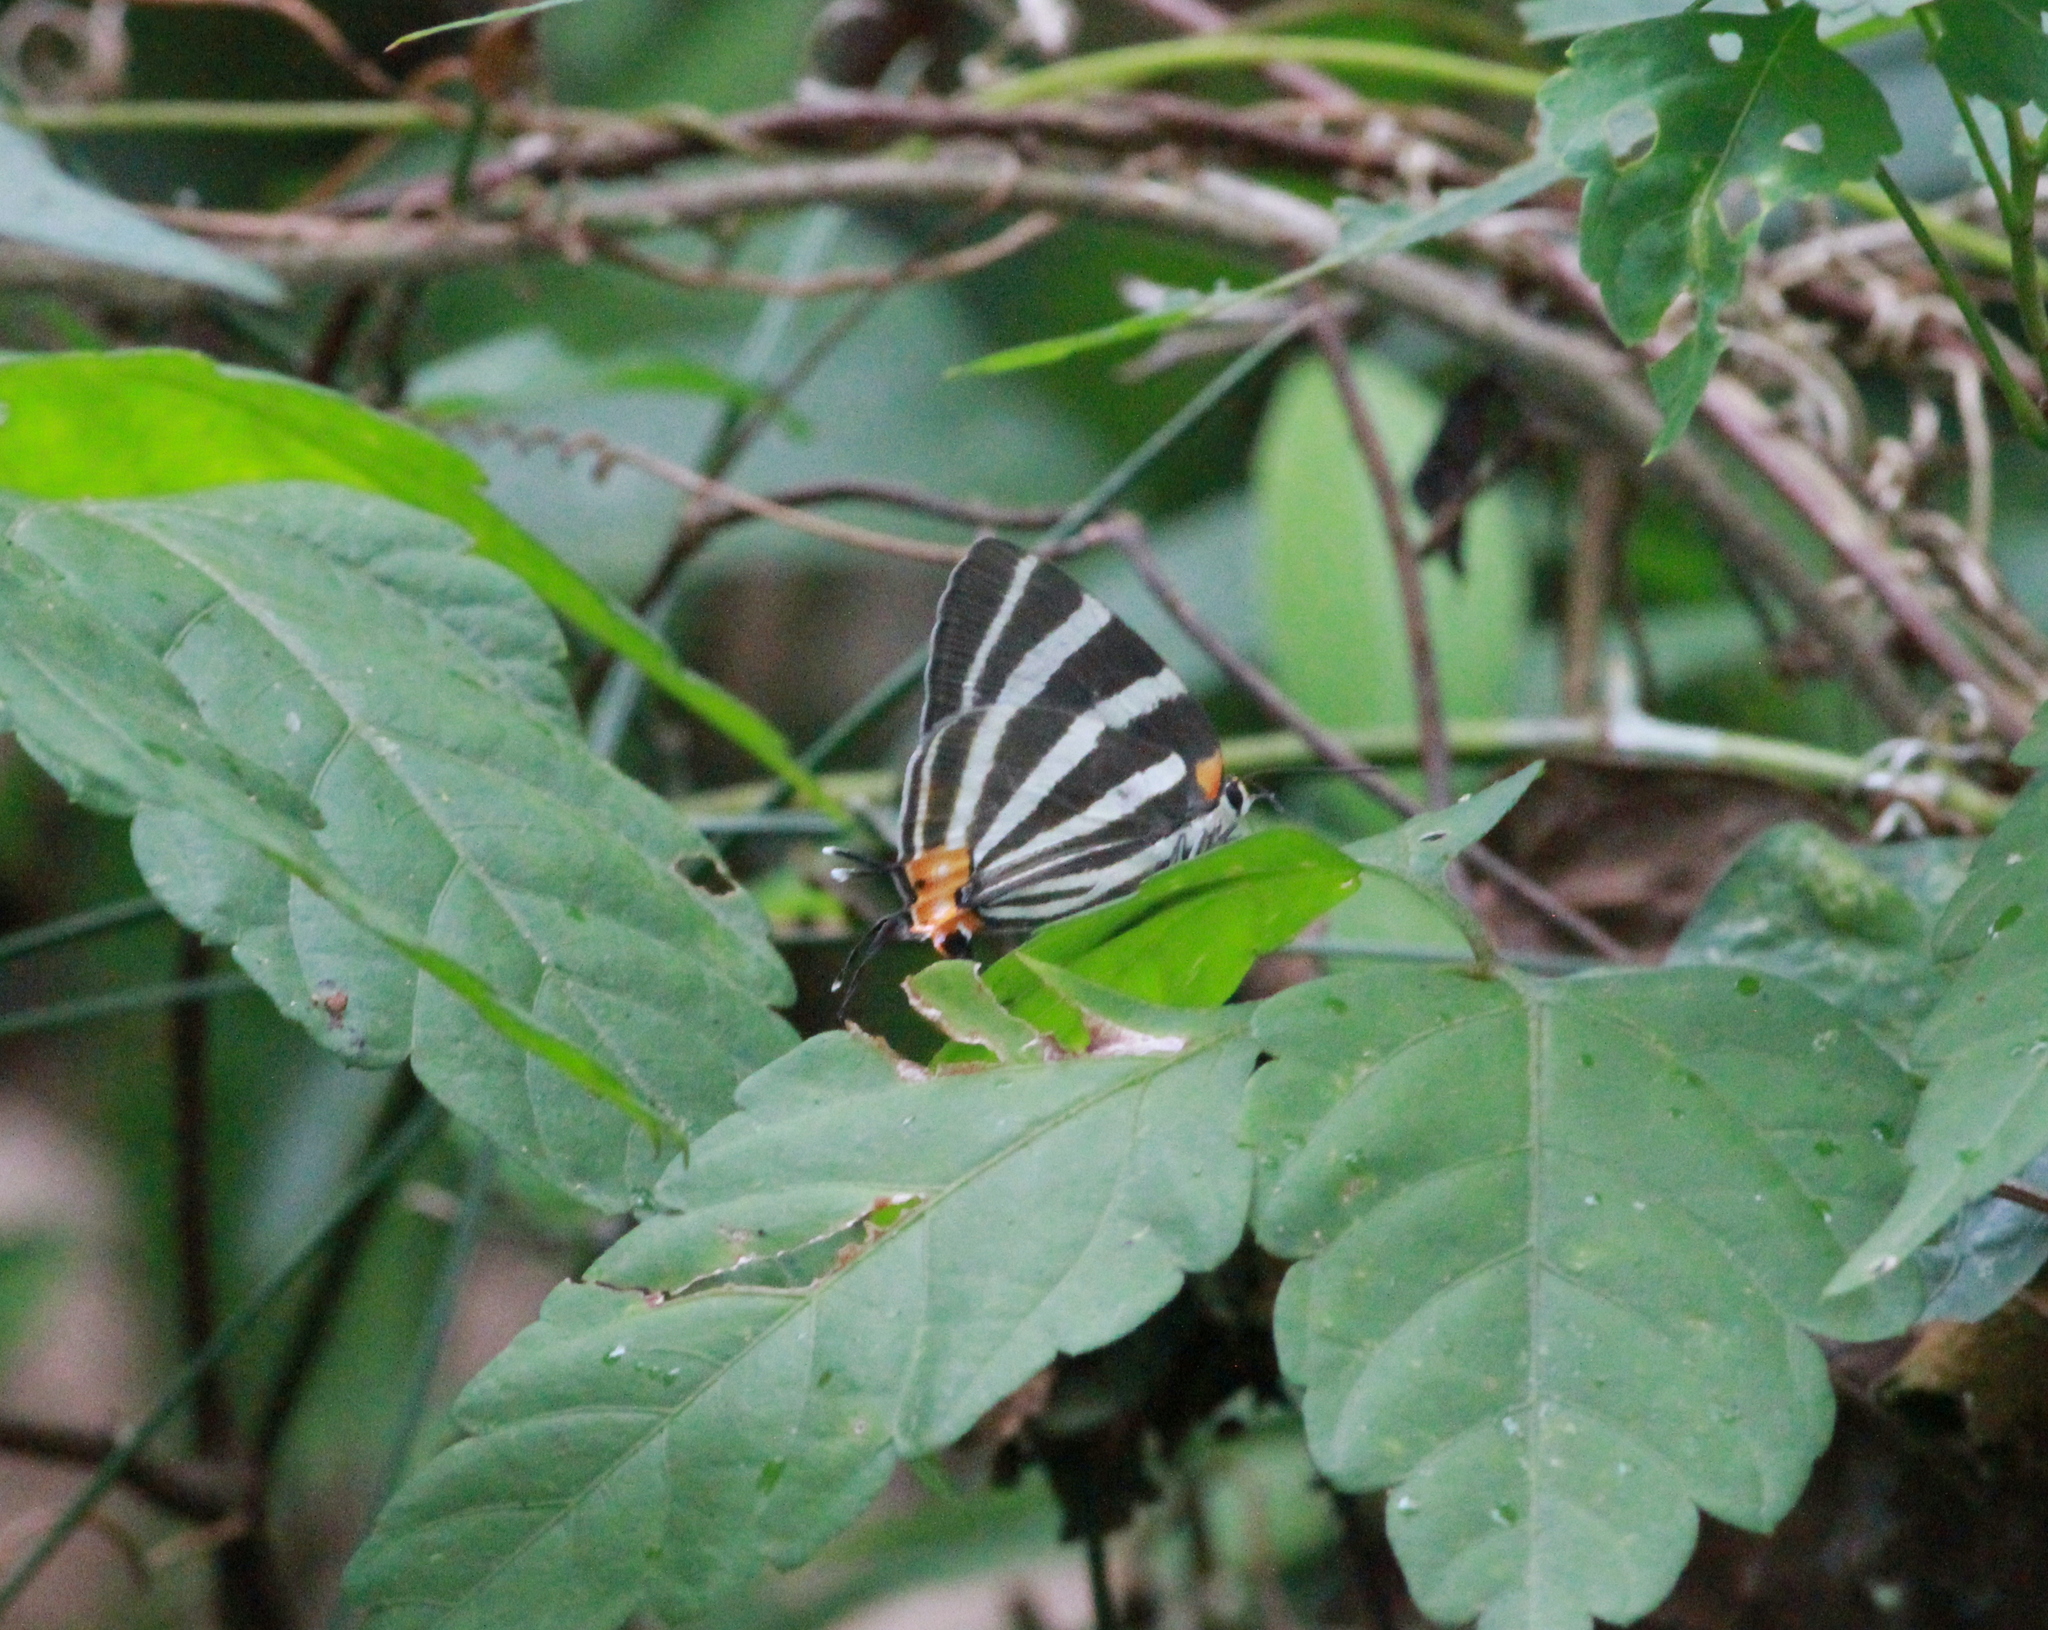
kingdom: Animalia
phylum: Arthropoda
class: Insecta
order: Lepidoptera
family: Lycaenidae
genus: Thecla
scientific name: Thecla bathildis
